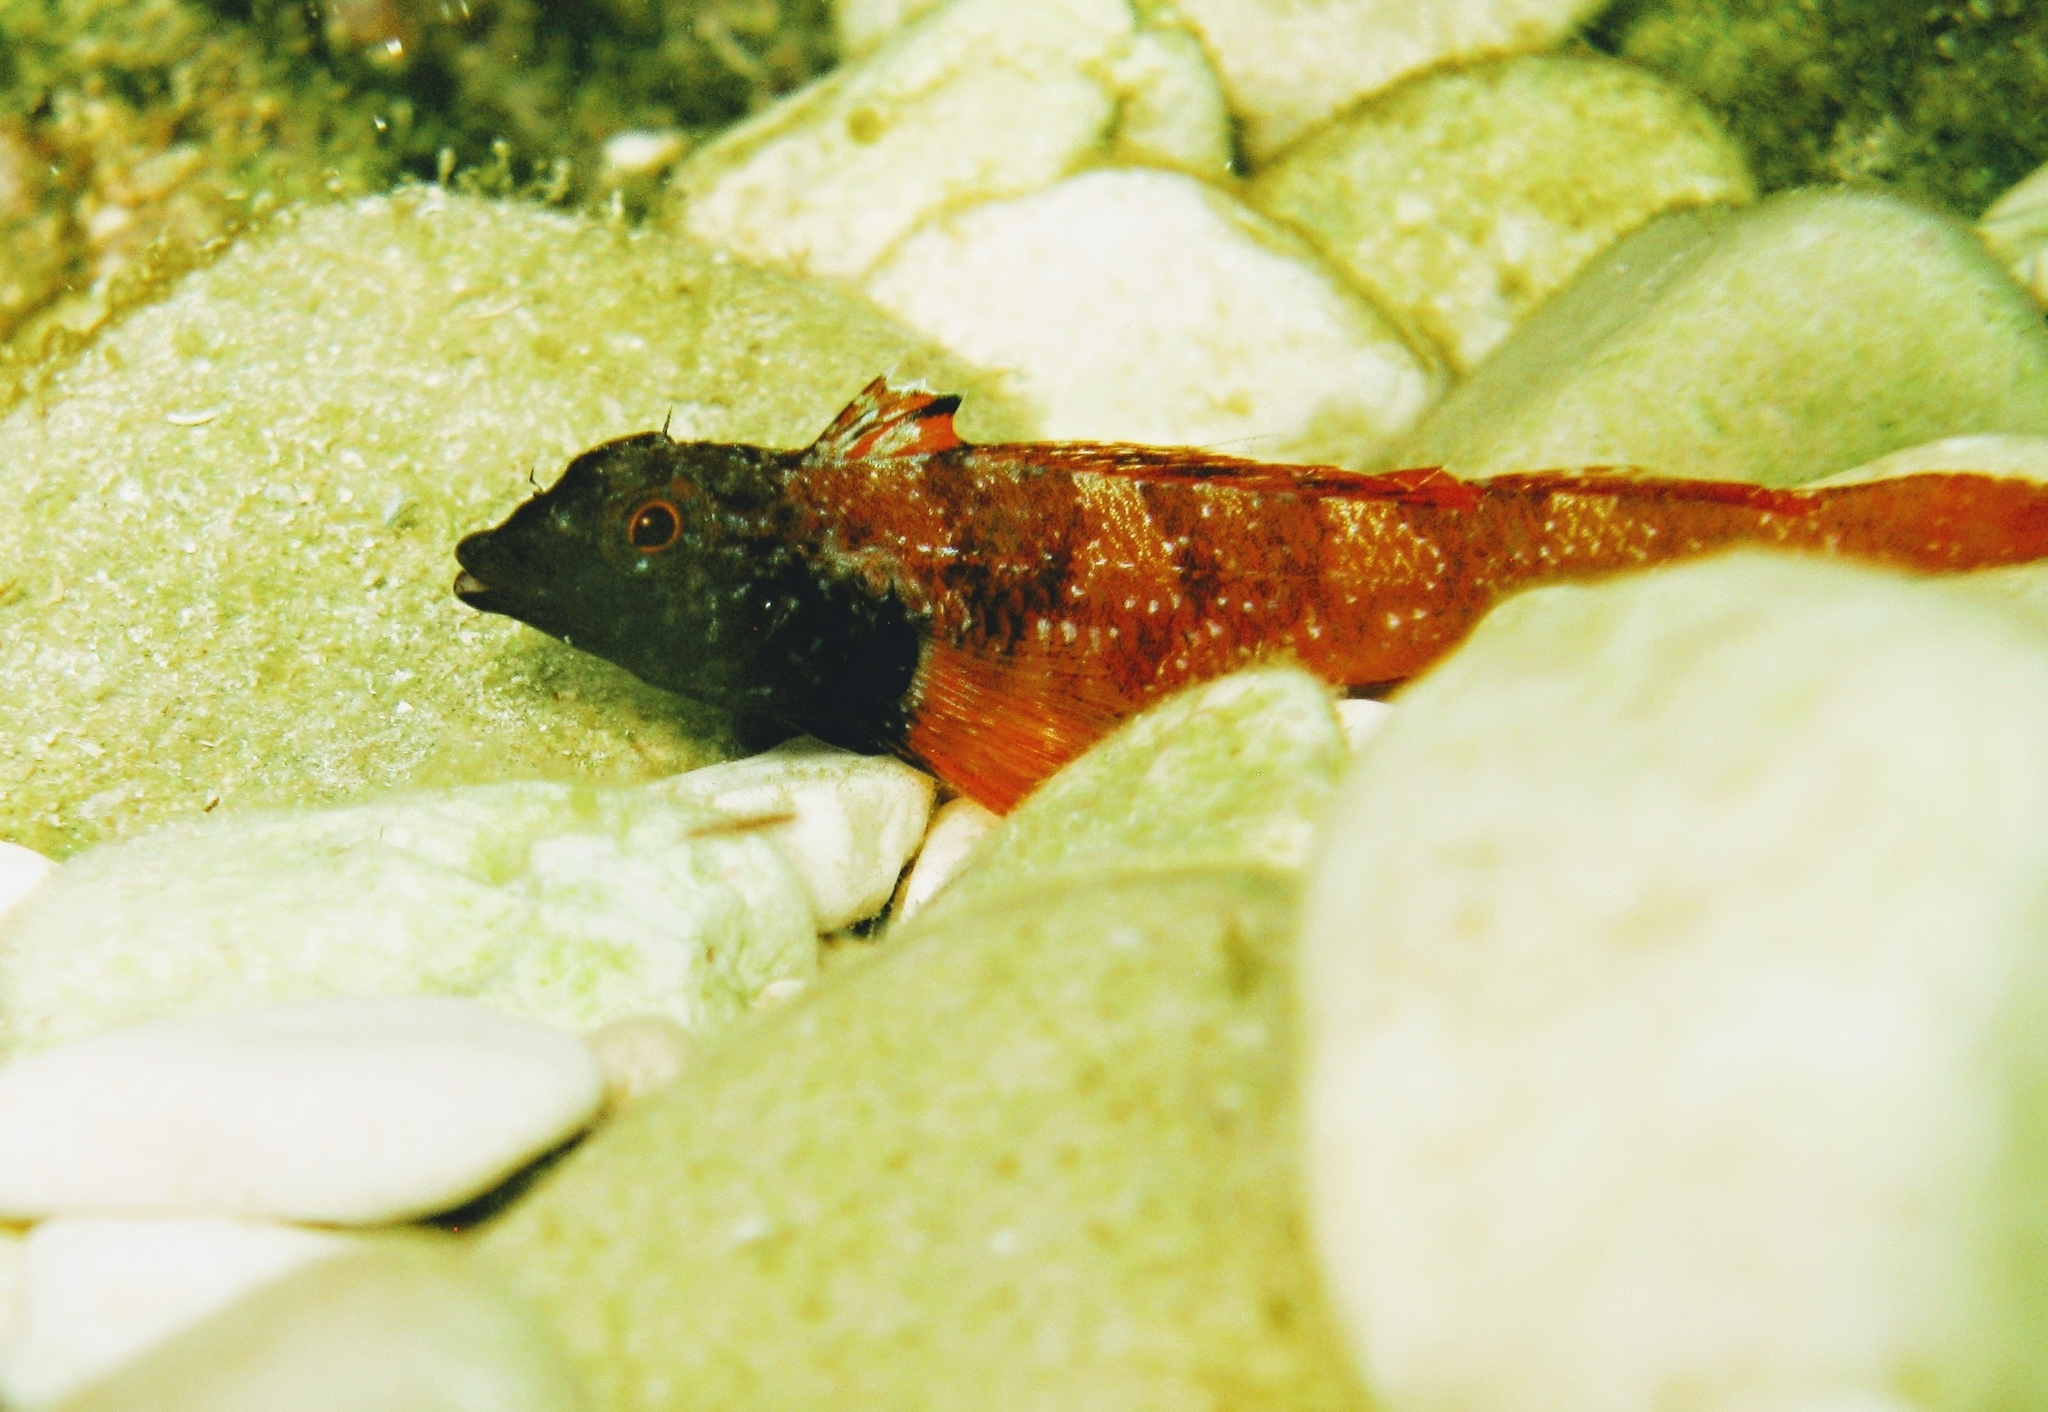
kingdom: Animalia
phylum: Chordata
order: Perciformes
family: Tripterygiidae
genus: Tripterygion
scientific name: Tripterygion tripteronotum
